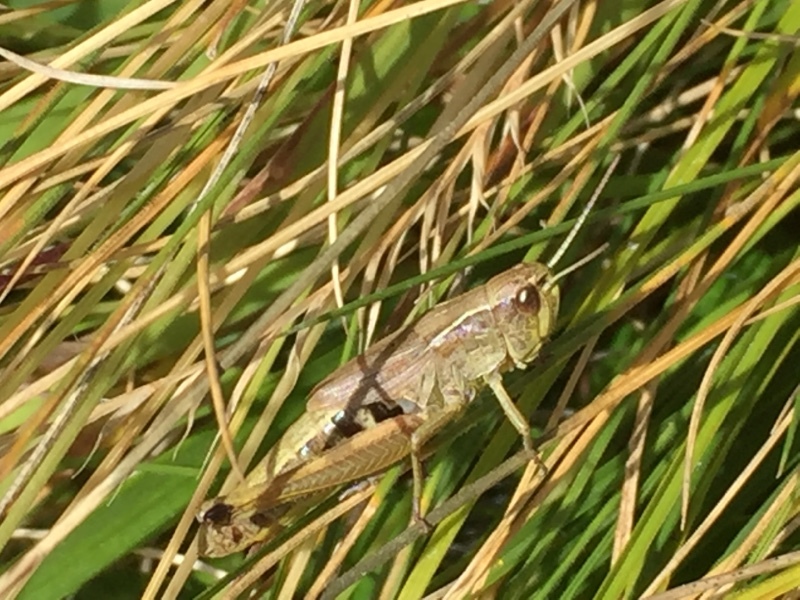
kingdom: Animalia
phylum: Arthropoda
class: Insecta
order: Orthoptera
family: Acrididae
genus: Pseudochorthippus
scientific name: Pseudochorthippus parallelus
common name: Meadow grasshopper
